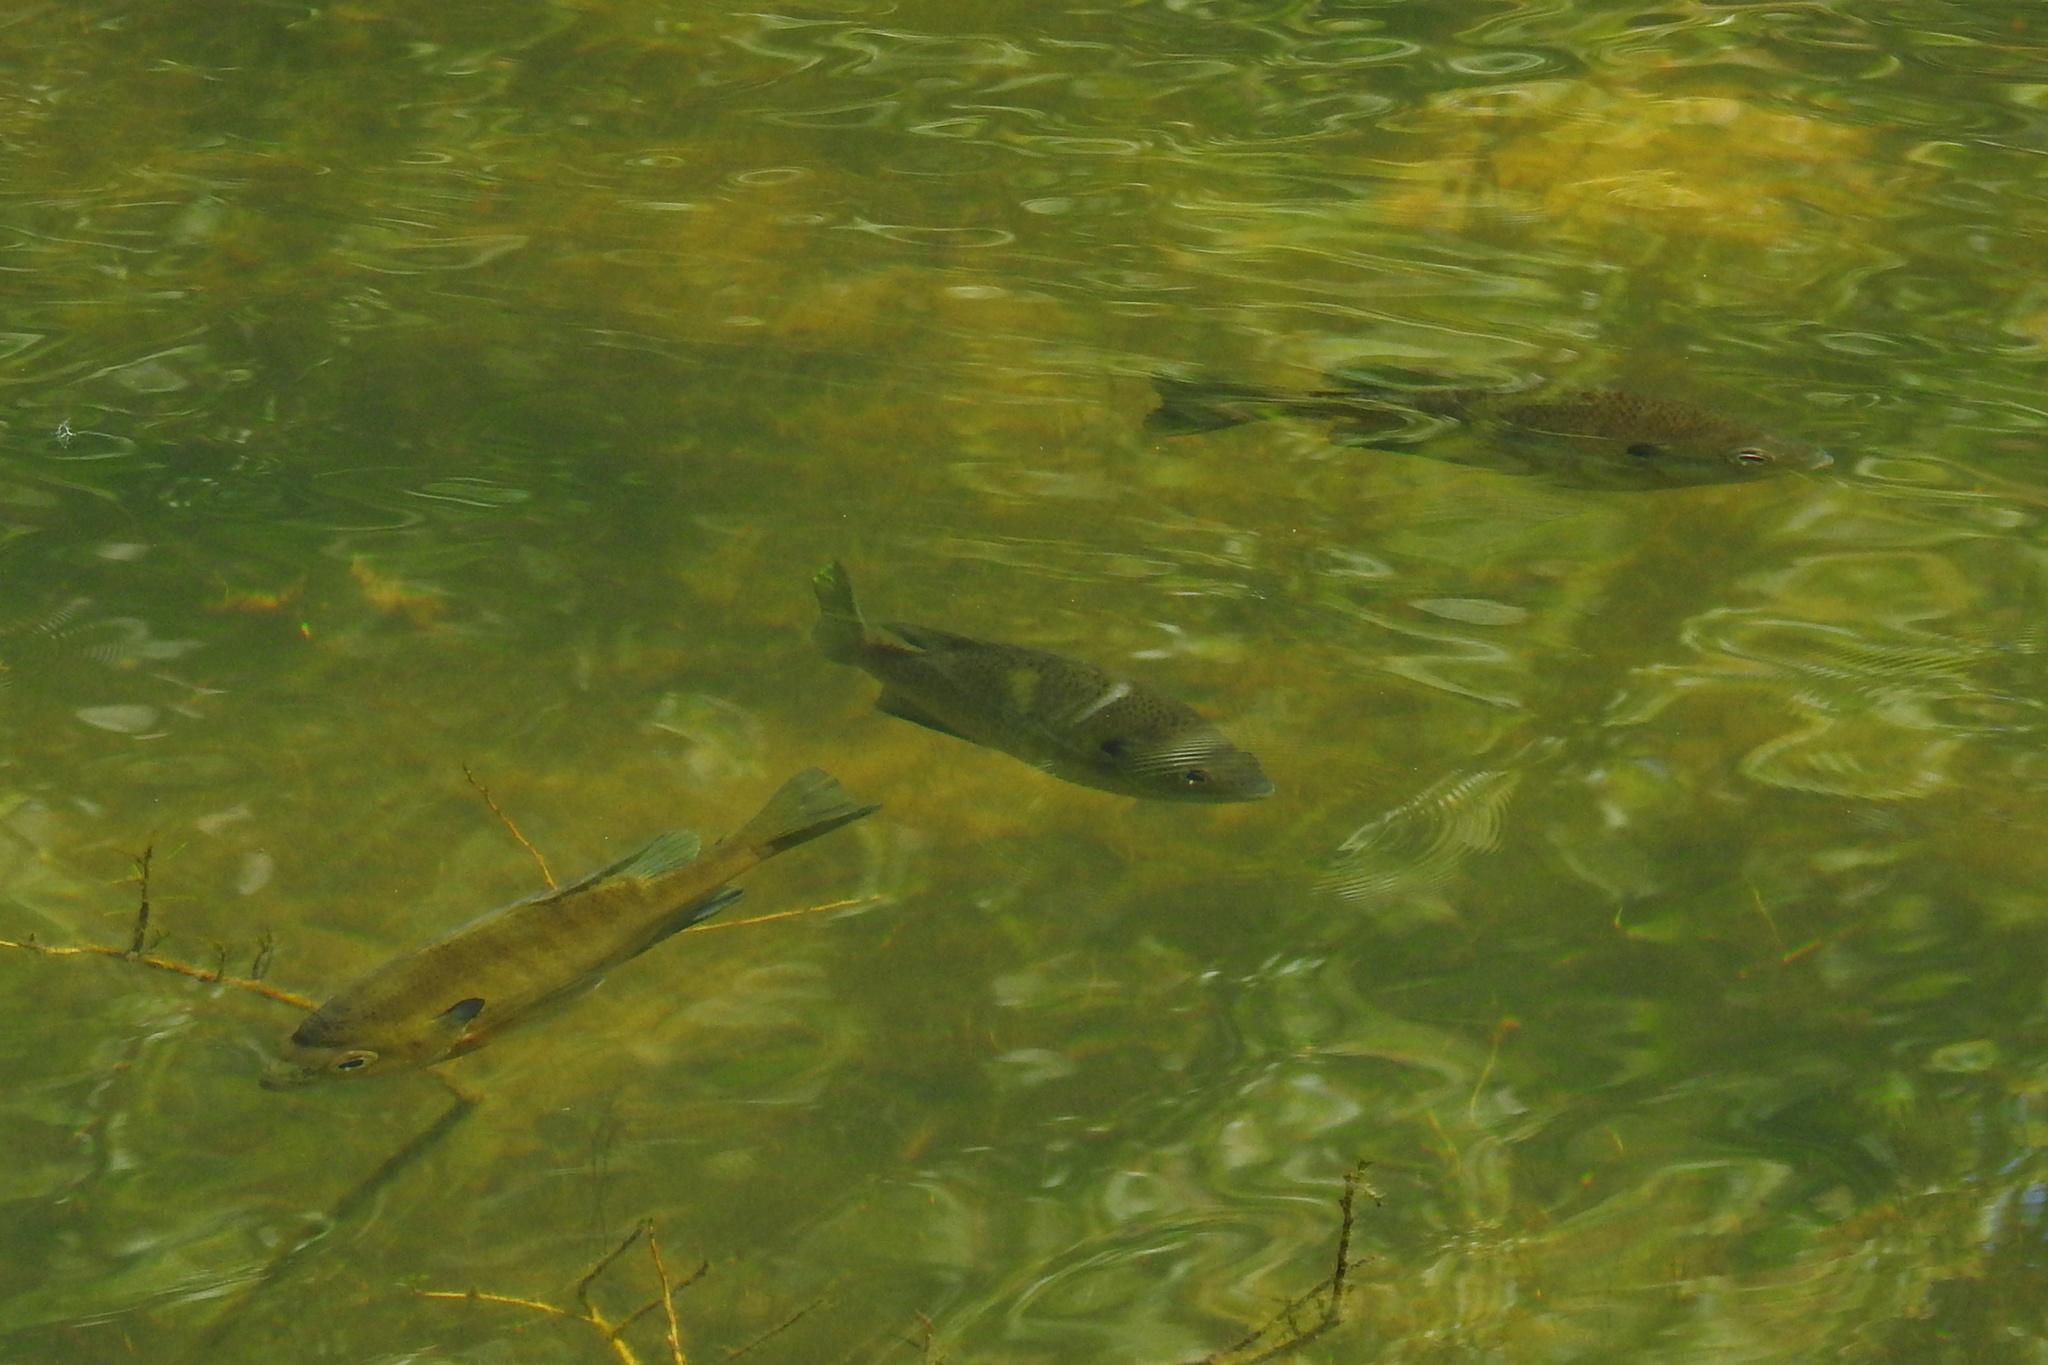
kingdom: Animalia
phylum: Chordata
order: Perciformes
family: Centrarchidae
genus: Lepomis
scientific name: Lepomis macrochirus
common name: Bluegill
